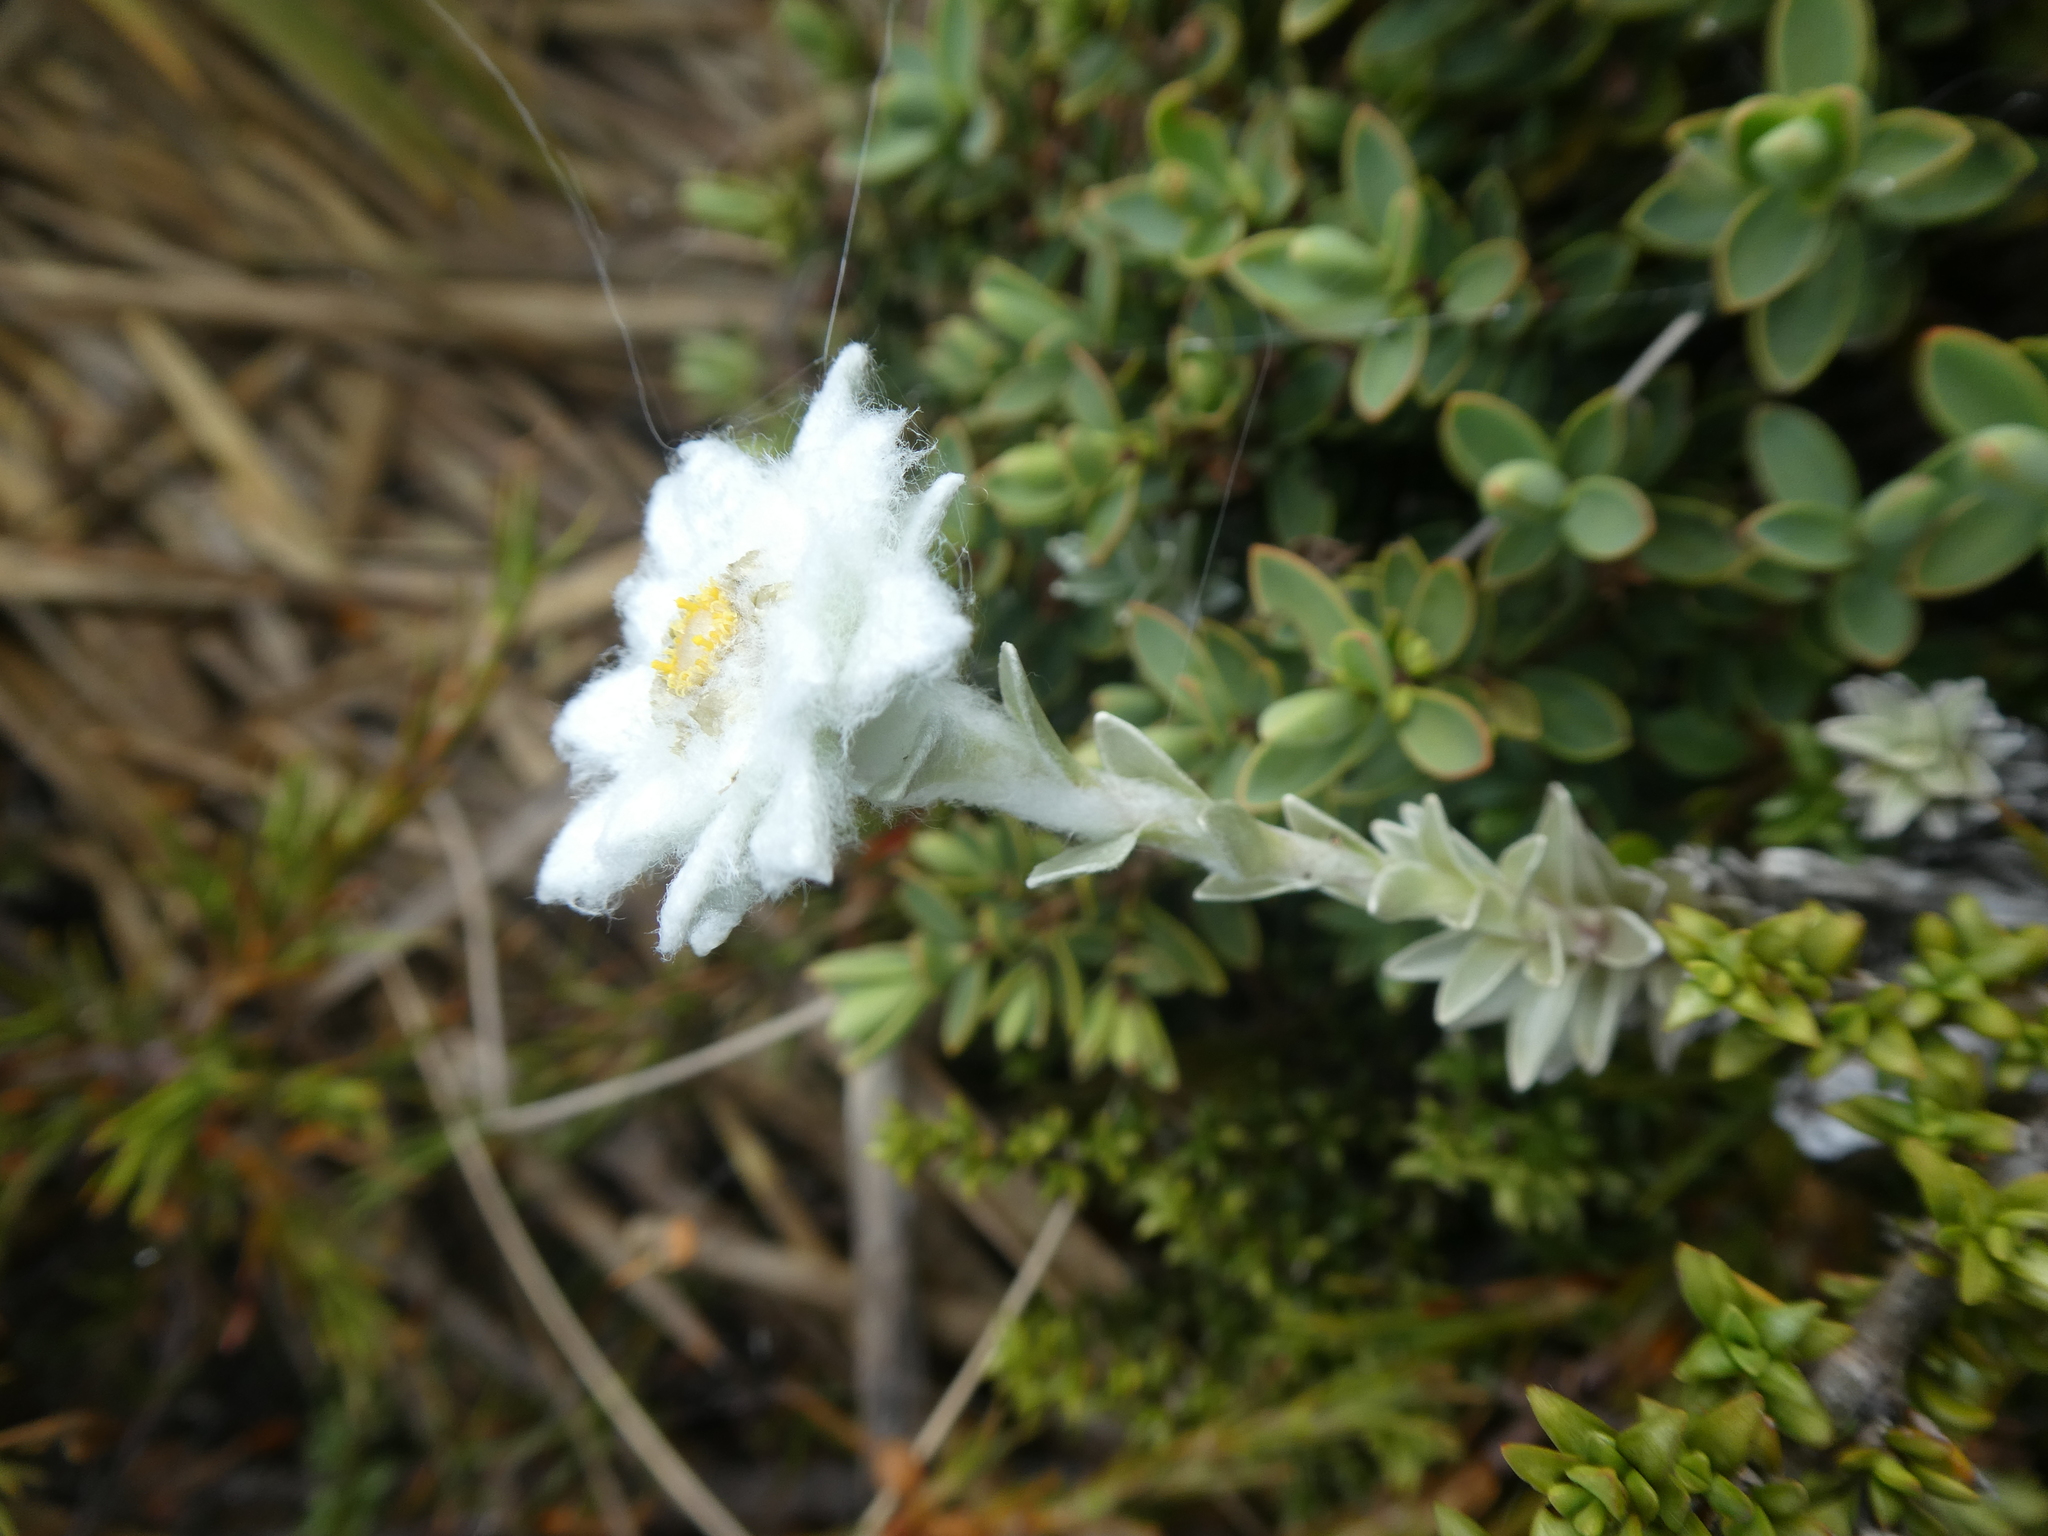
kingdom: Plantae
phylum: Tracheophyta
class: Magnoliopsida
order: Asterales
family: Asteraceae
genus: Leucogenes
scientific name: Leucogenes leontopodium
